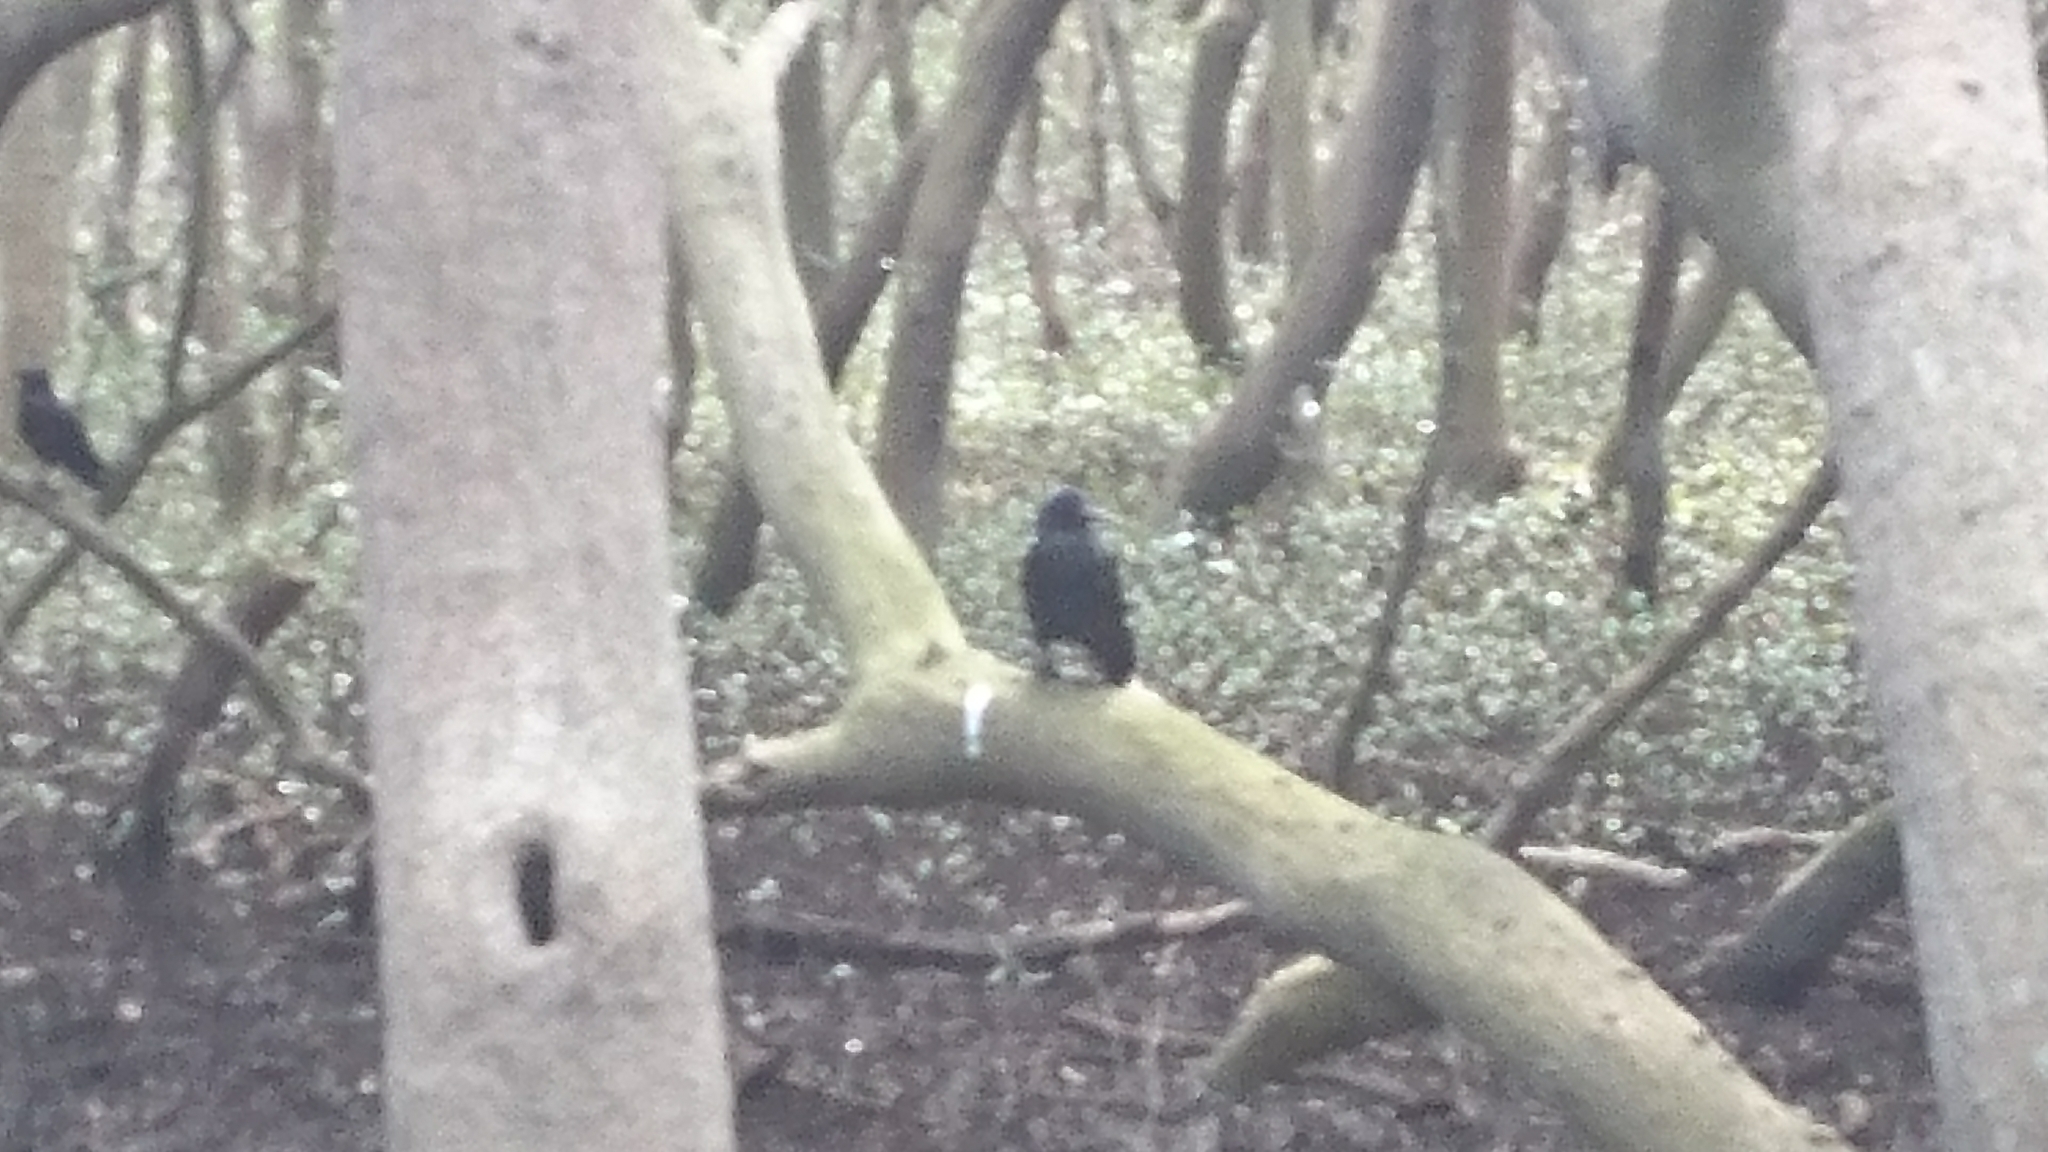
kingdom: Animalia
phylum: Chordata
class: Aves
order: Passeriformes
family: Corvidae
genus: Corvus
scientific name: Corvus coronoides
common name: Australian raven
